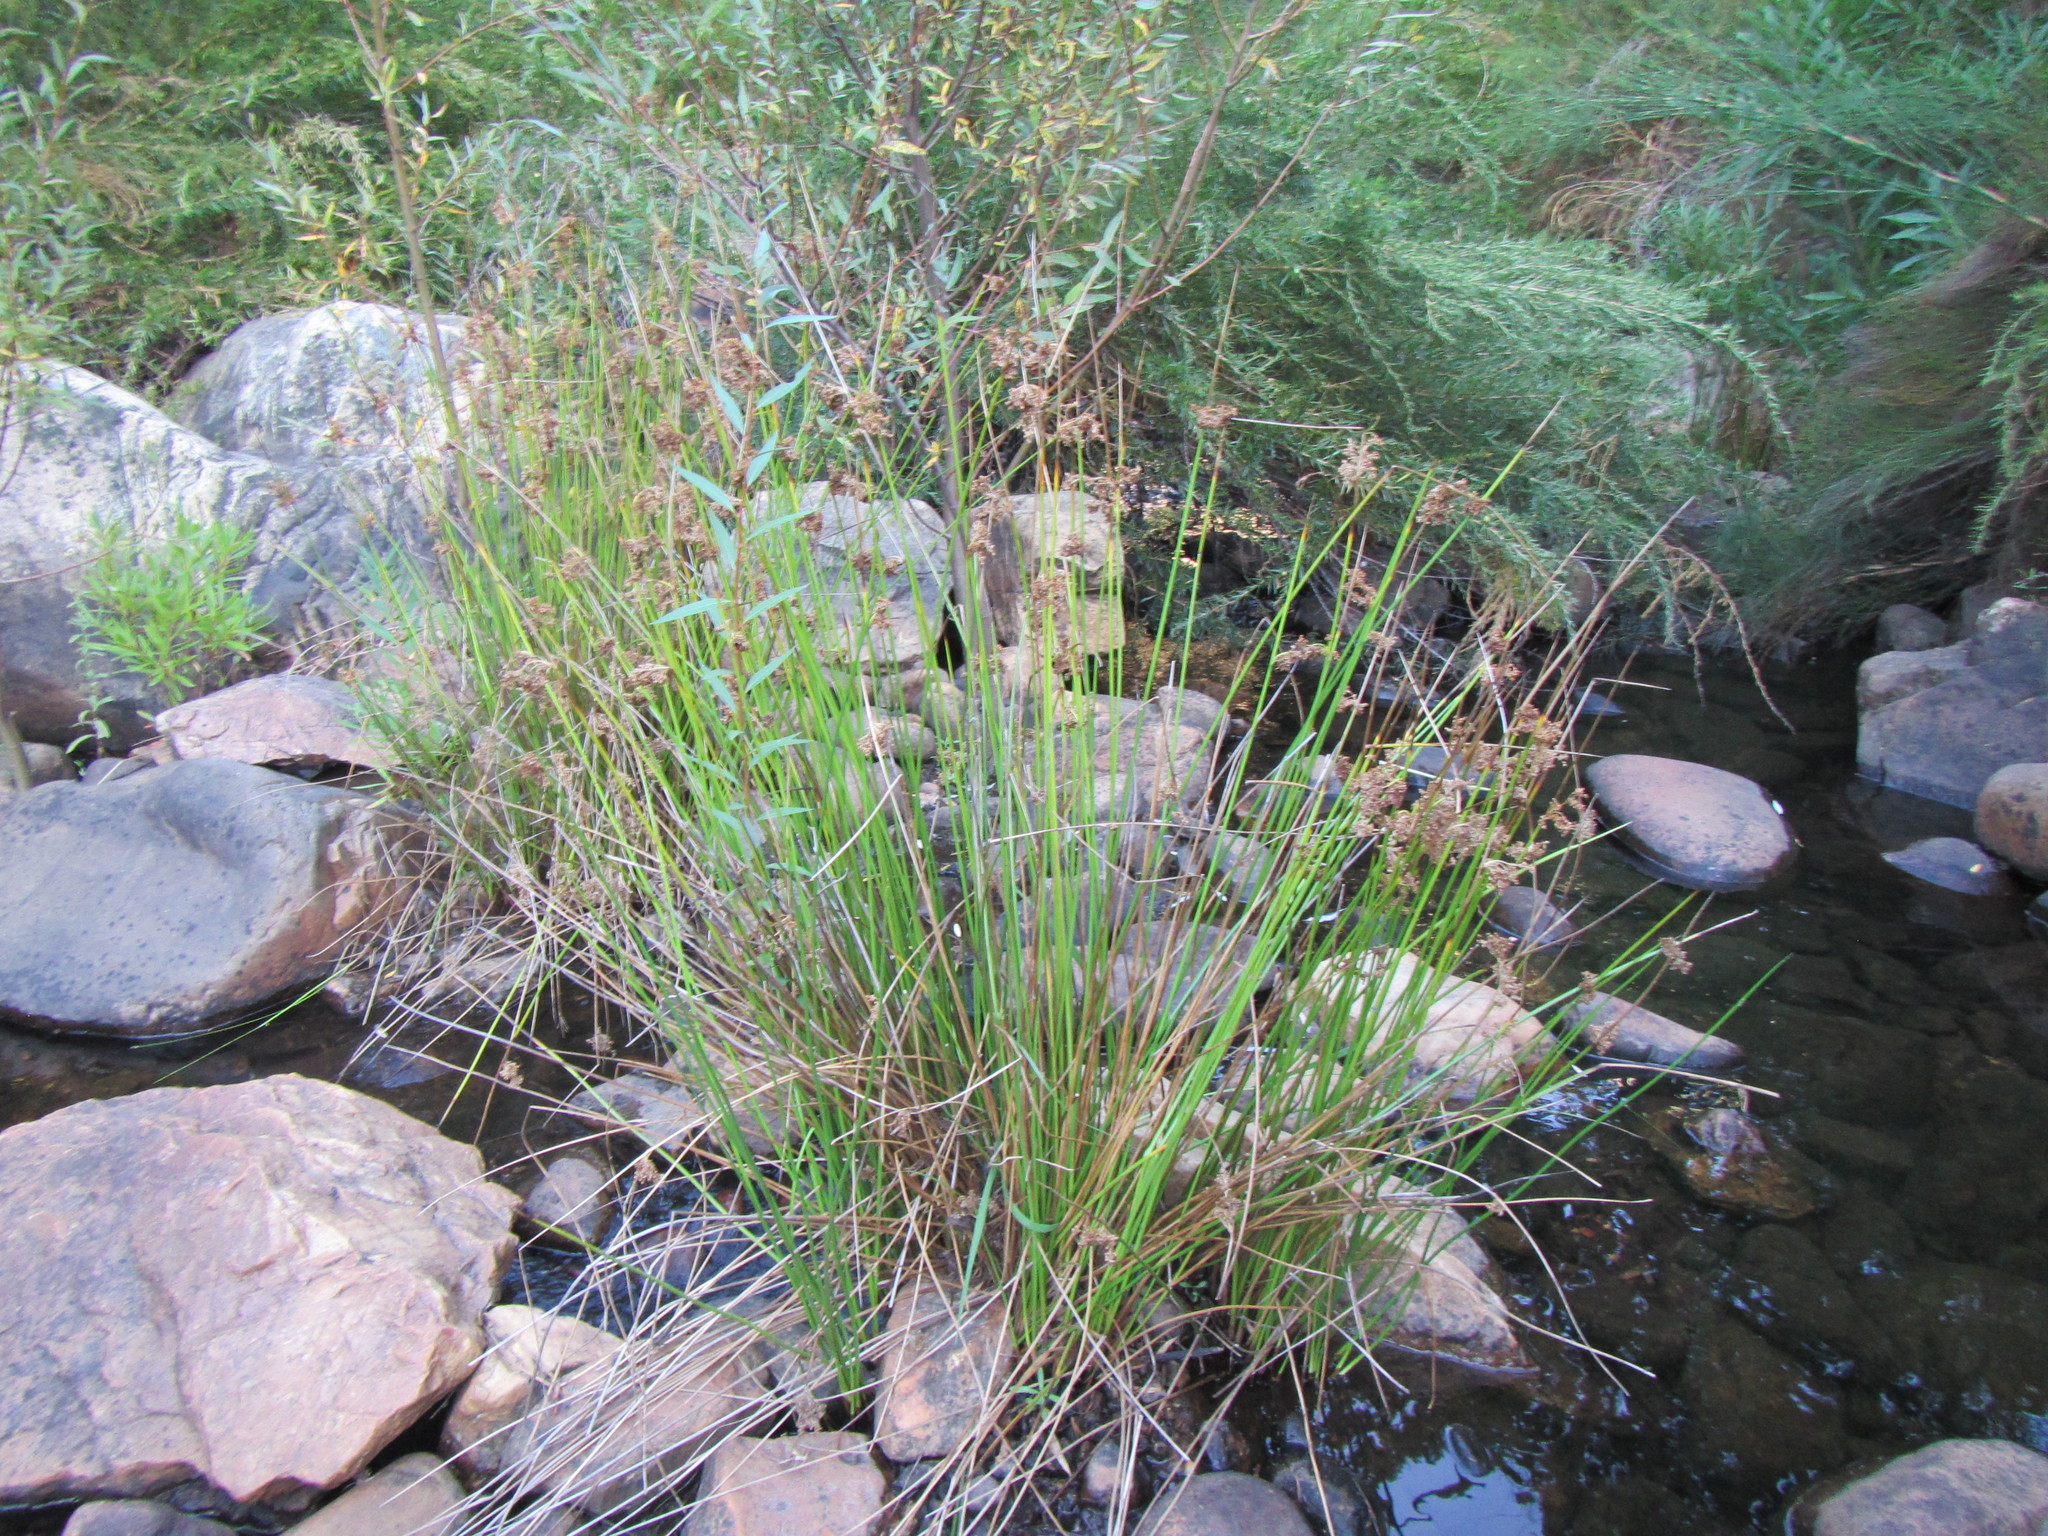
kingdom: Plantae
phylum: Tracheophyta
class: Liliopsida
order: Poales
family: Juncaceae
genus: Juncus
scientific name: Juncus effusus
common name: Soft rush
